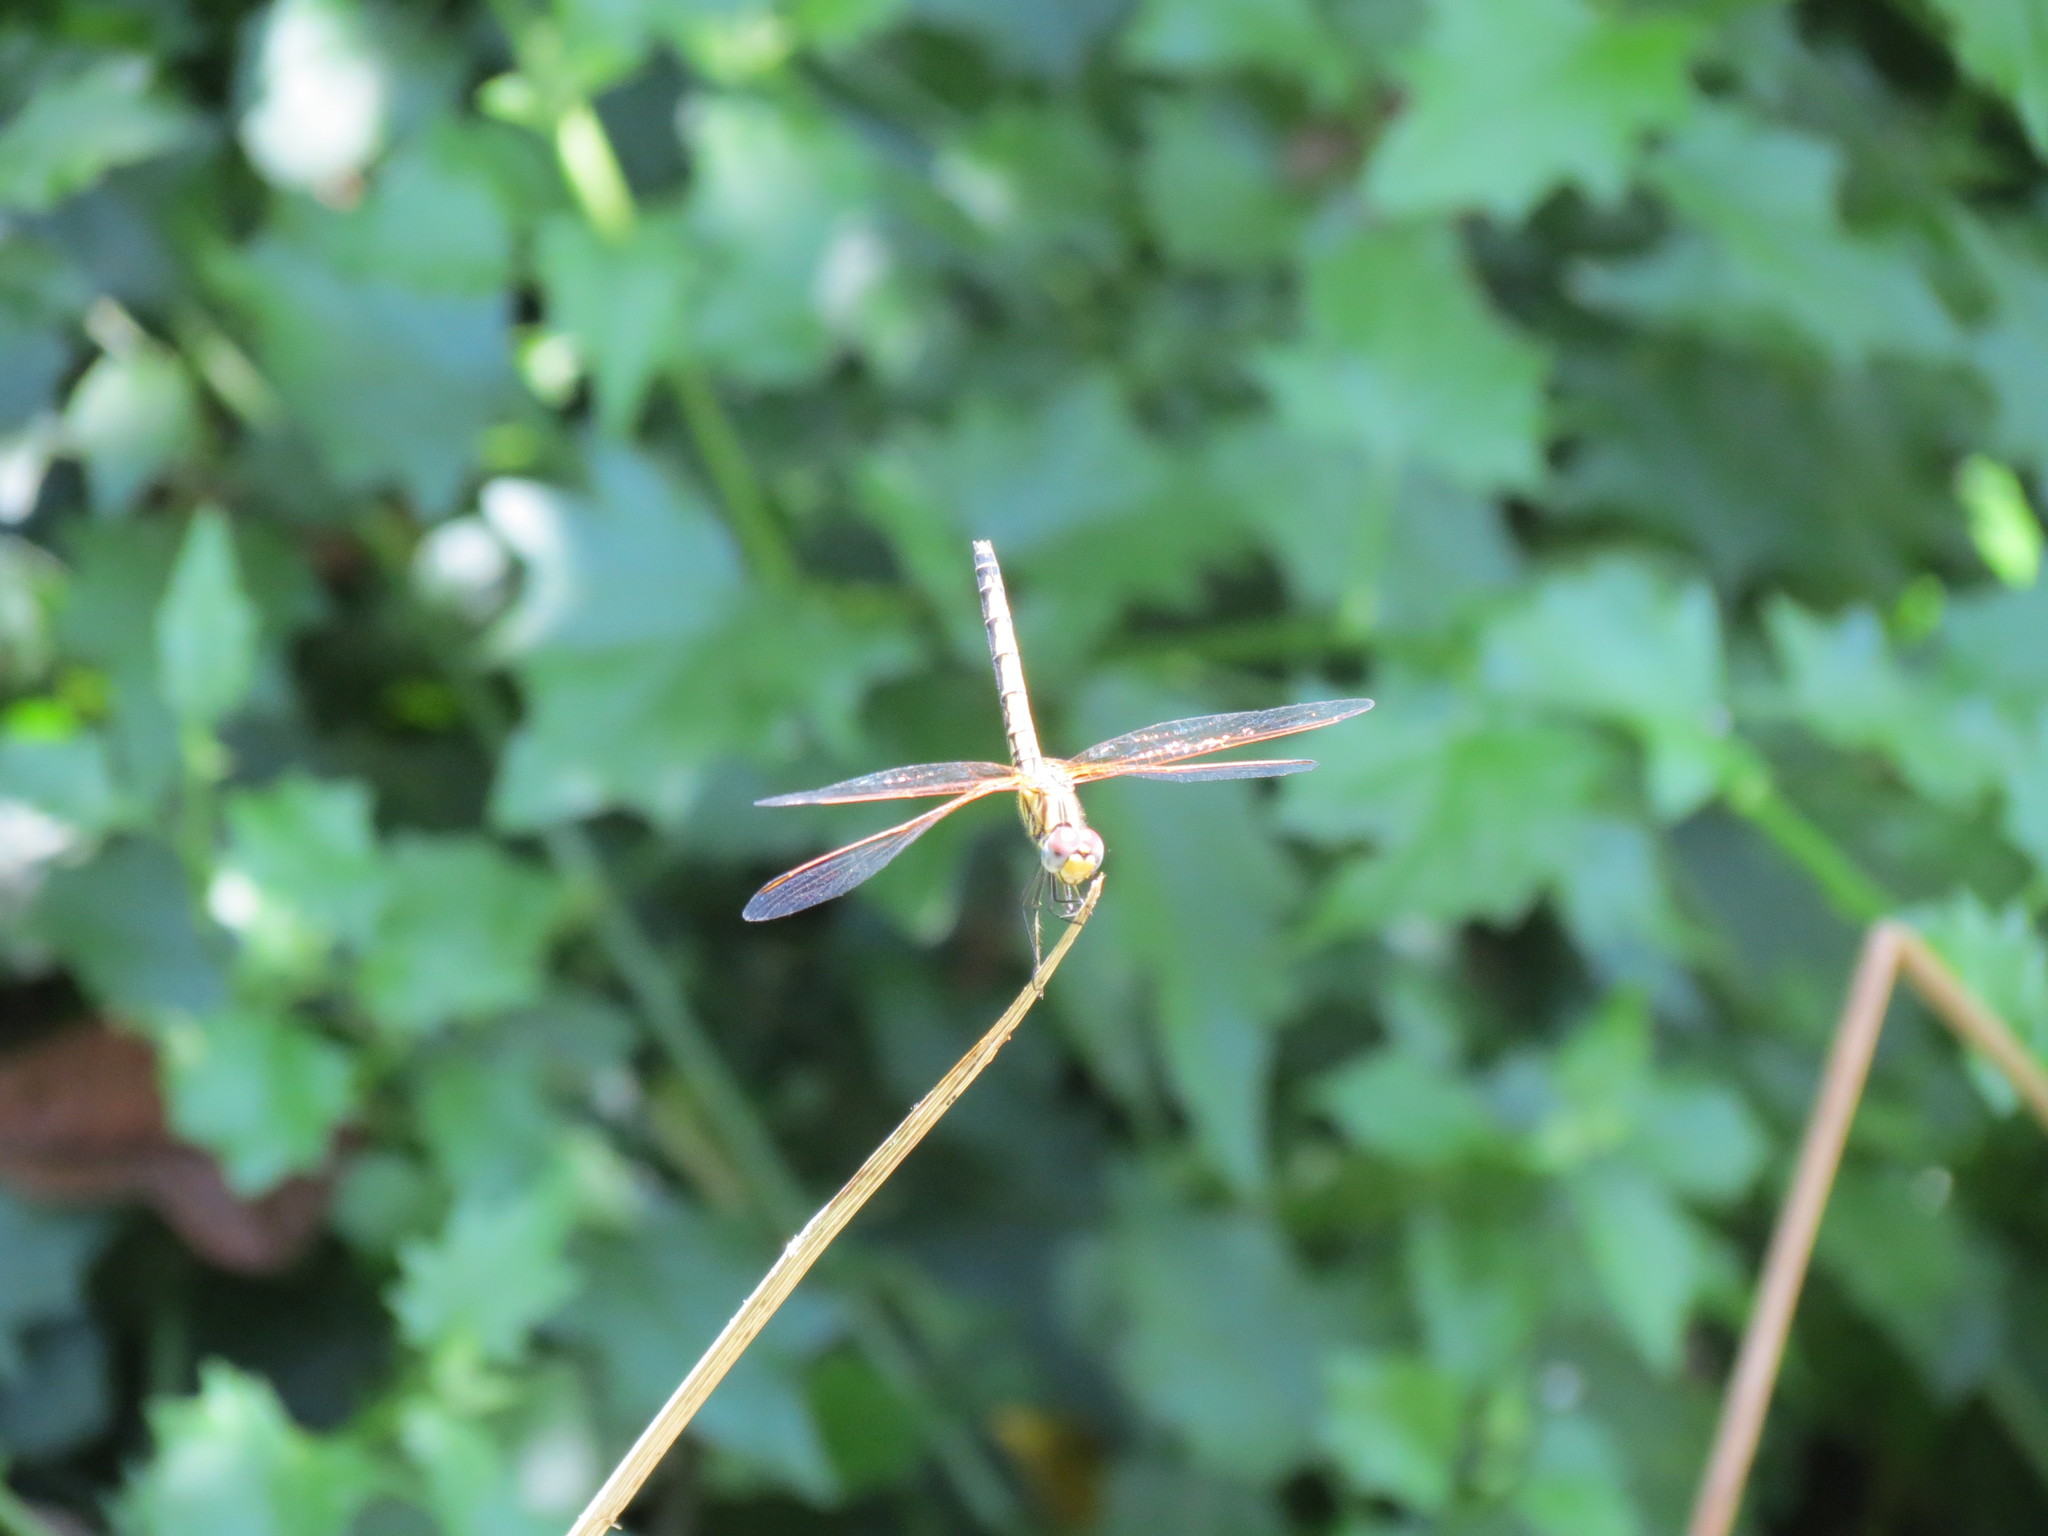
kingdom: Animalia
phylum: Arthropoda
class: Insecta
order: Odonata
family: Libellulidae
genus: Trithemis
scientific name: Trithemis arteriosa
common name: Red-veined dropwing
